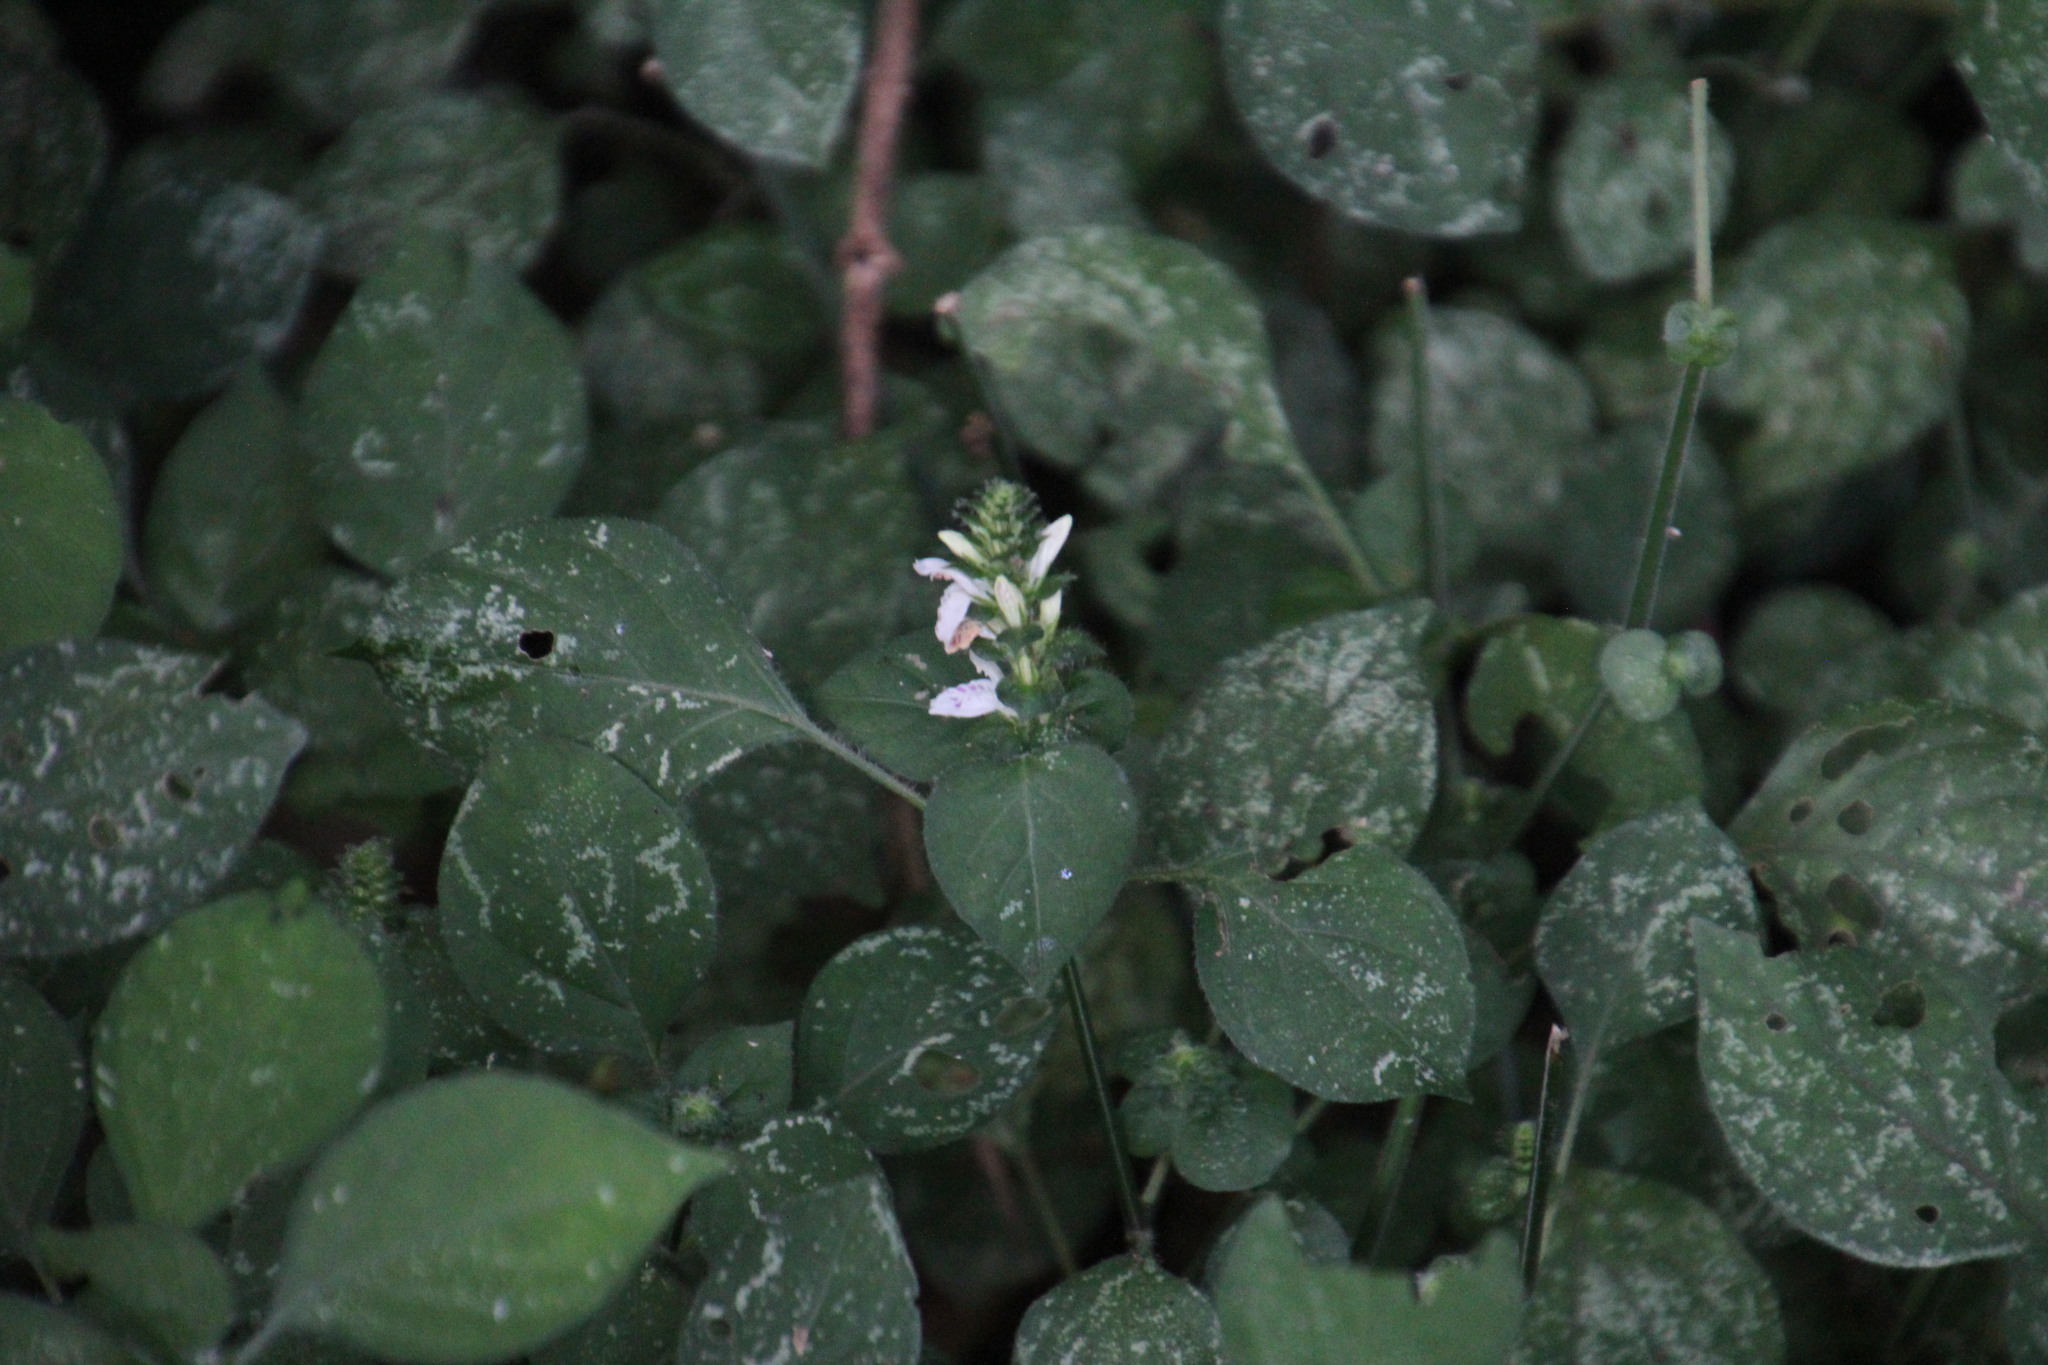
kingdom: Plantae
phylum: Tracheophyta
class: Magnoliopsida
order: Lamiales
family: Acanthaceae
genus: Isoglossa
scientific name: Isoglossa woodii
